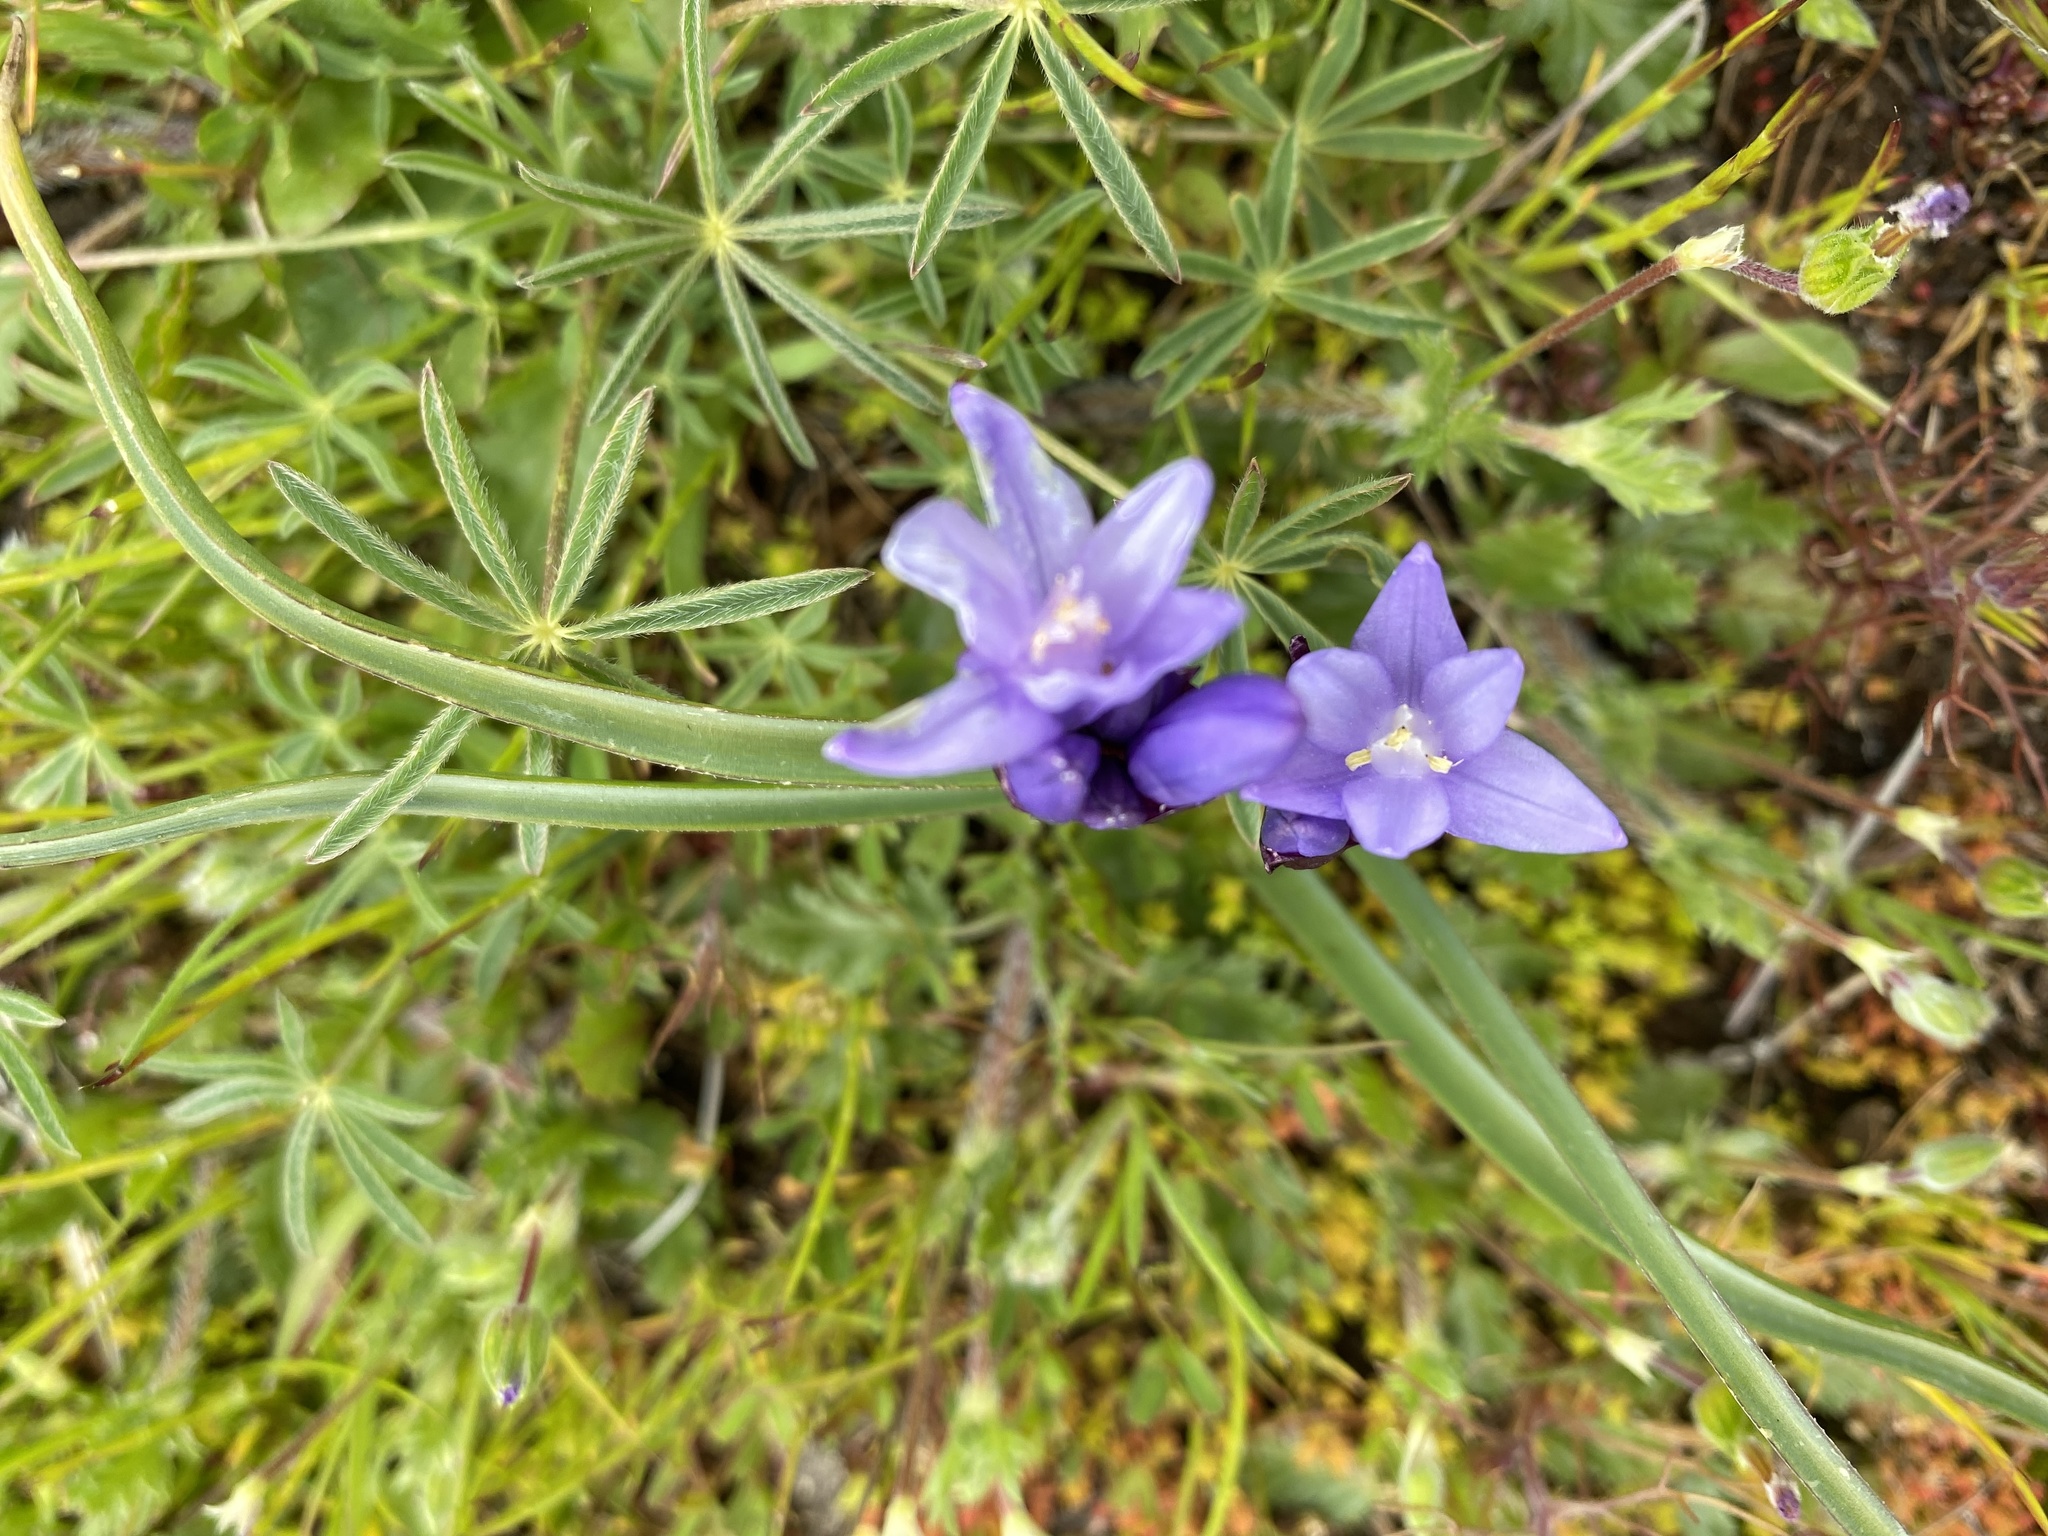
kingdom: Plantae
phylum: Tracheophyta
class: Liliopsida
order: Asparagales
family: Asparagaceae
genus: Dipterostemon
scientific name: Dipterostemon capitatus
